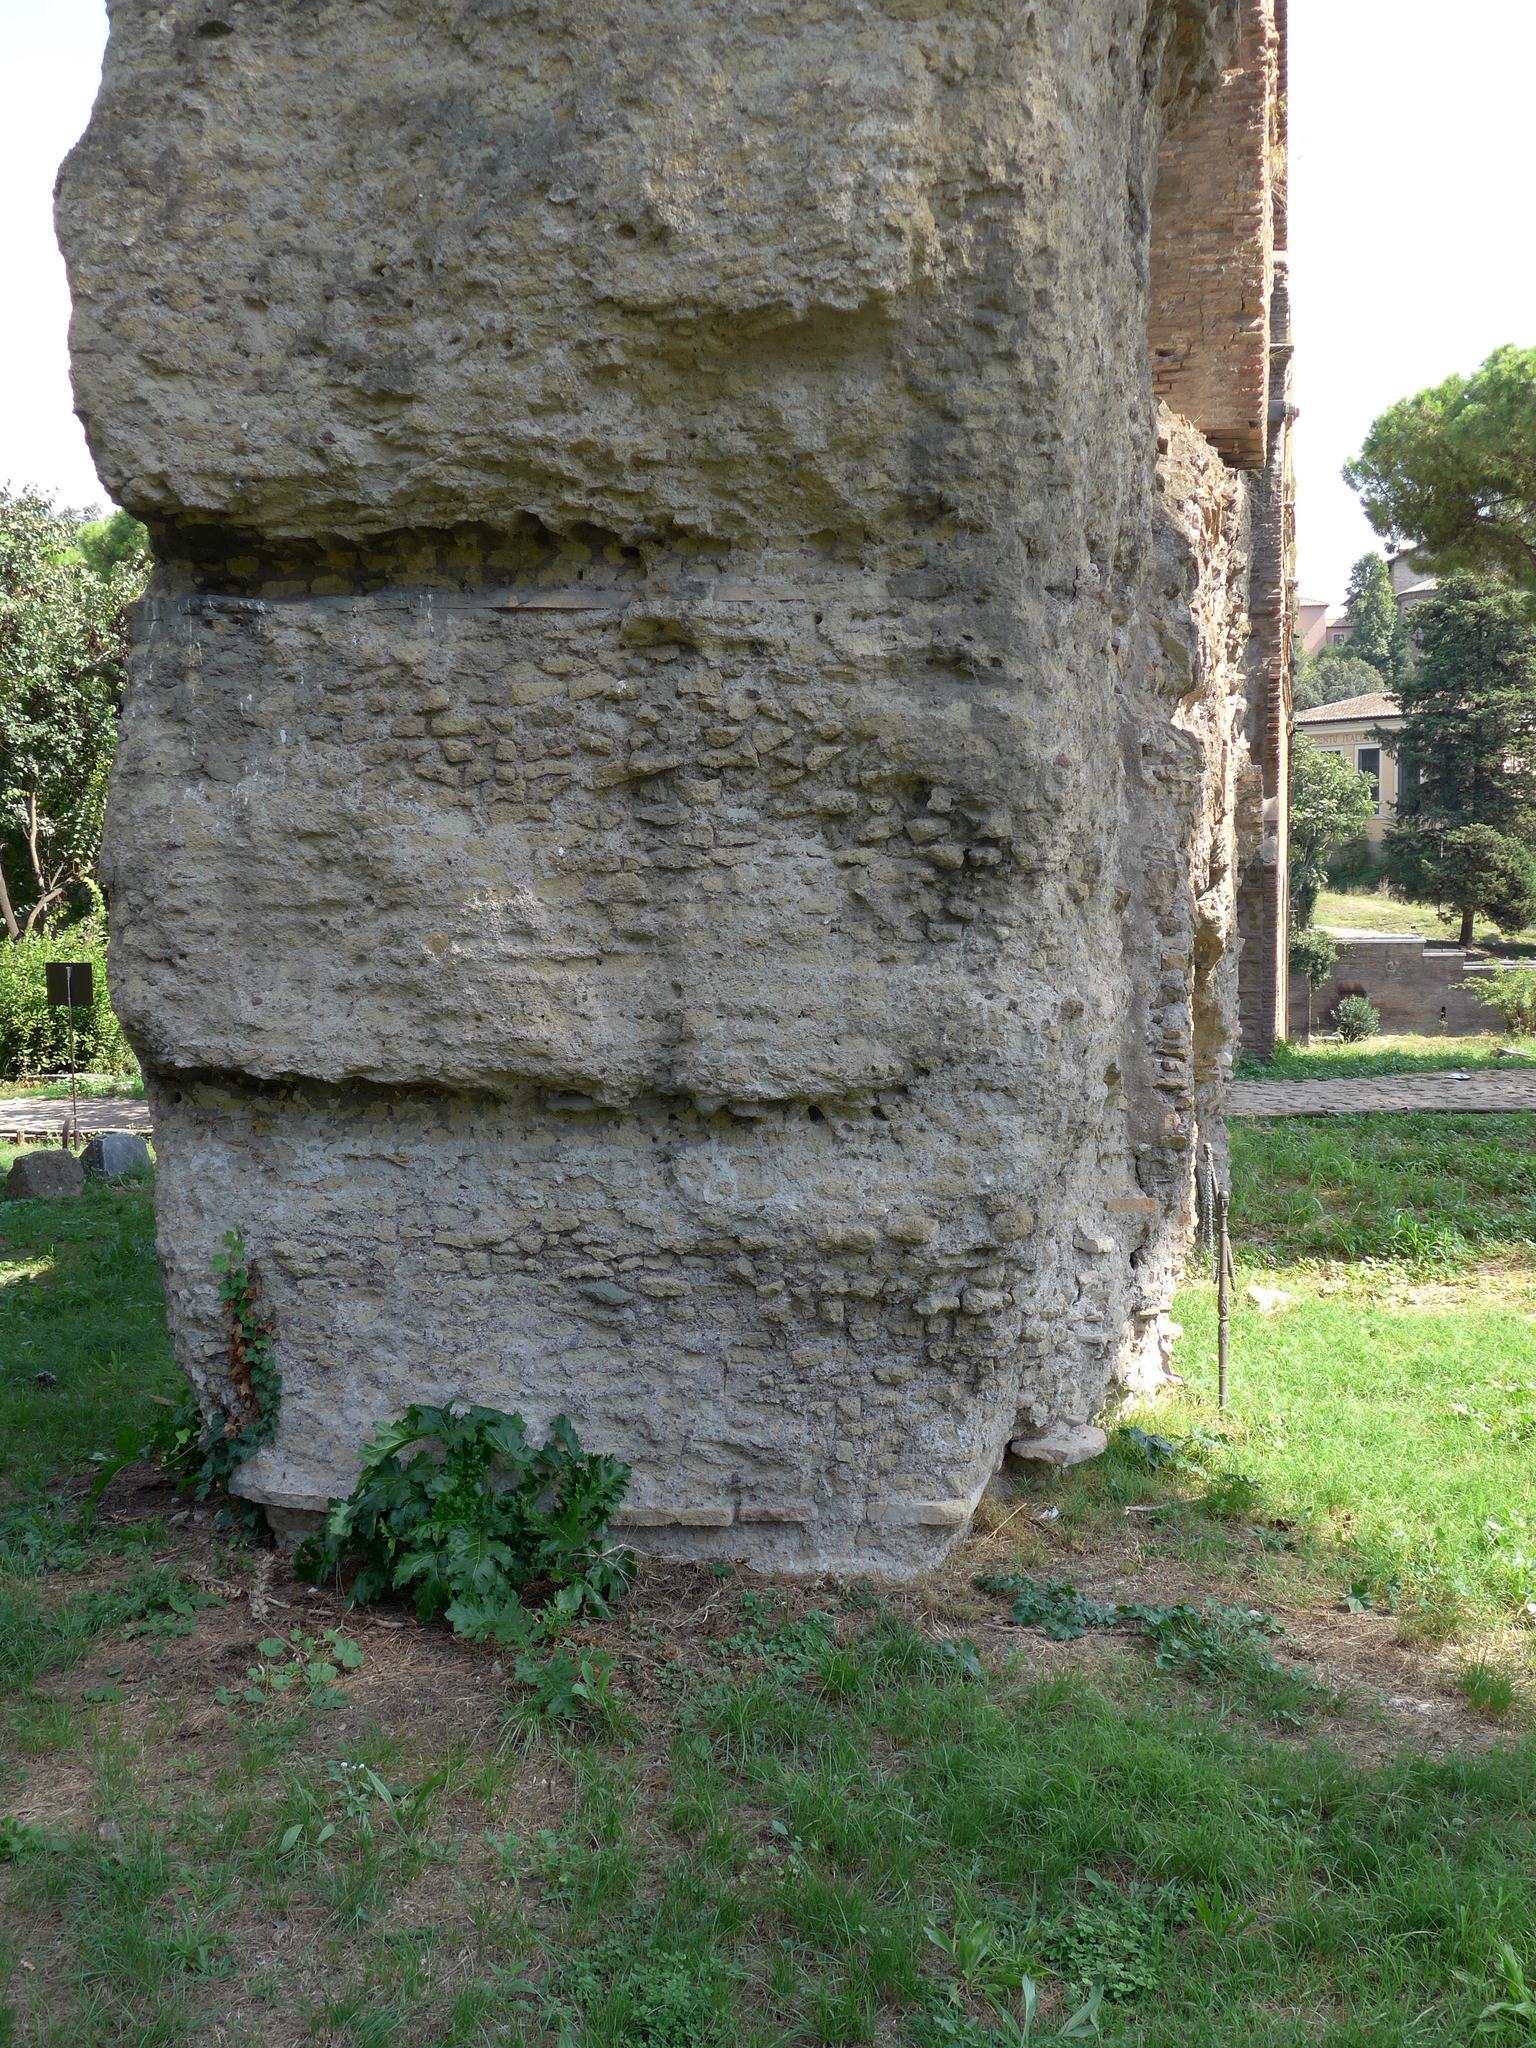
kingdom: Plantae
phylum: Tracheophyta
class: Magnoliopsida
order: Lamiales
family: Acanthaceae
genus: Acanthus
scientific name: Acanthus mollis
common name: Bear's-breech
